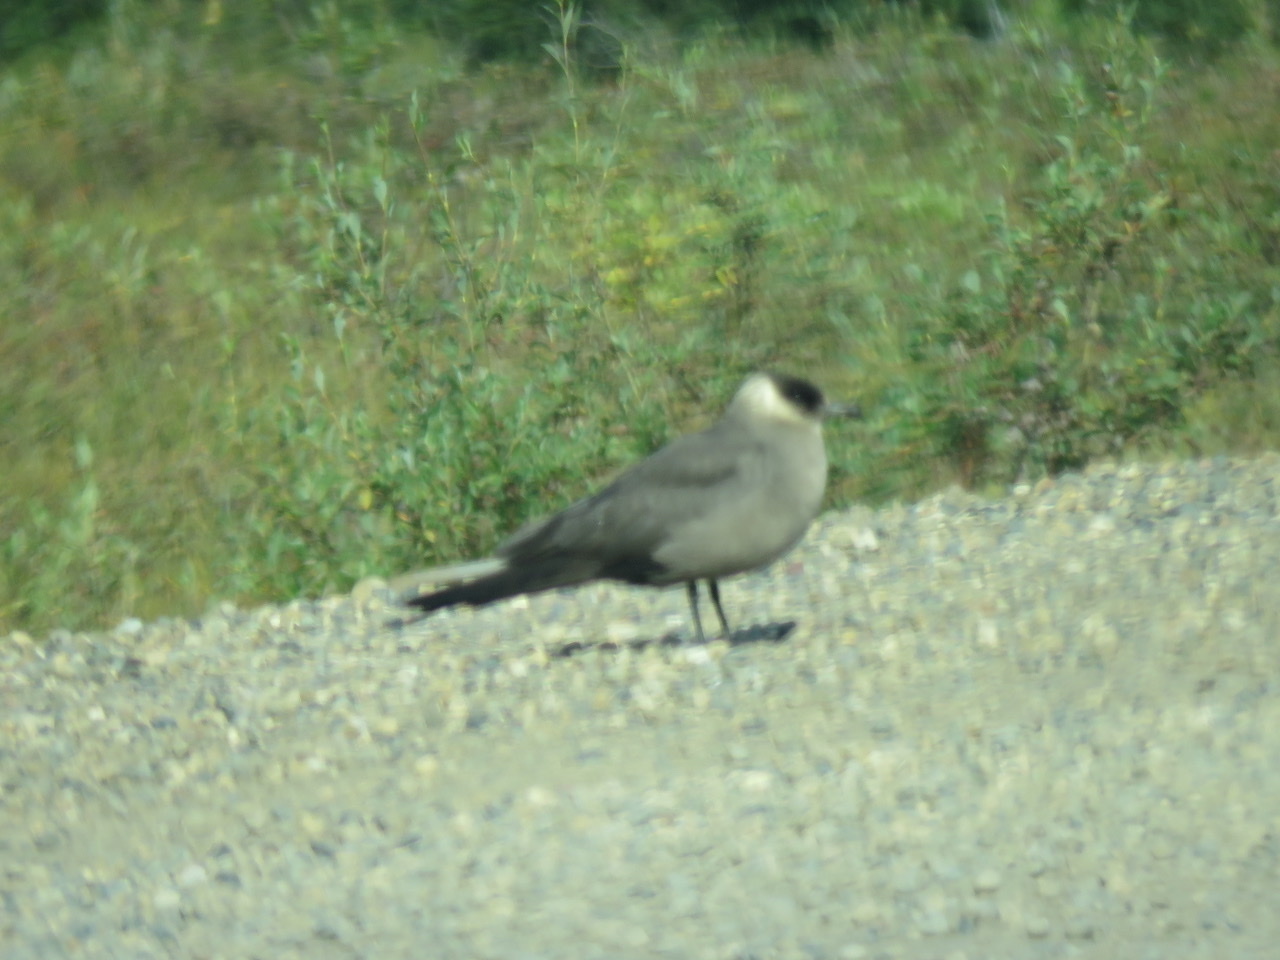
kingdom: Animalia
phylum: Chordata
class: Aves
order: Charadriiformes
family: Stercorariidae
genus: Stercorarius
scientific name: Stercorarius parasiticus
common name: Parasitic jaeger
